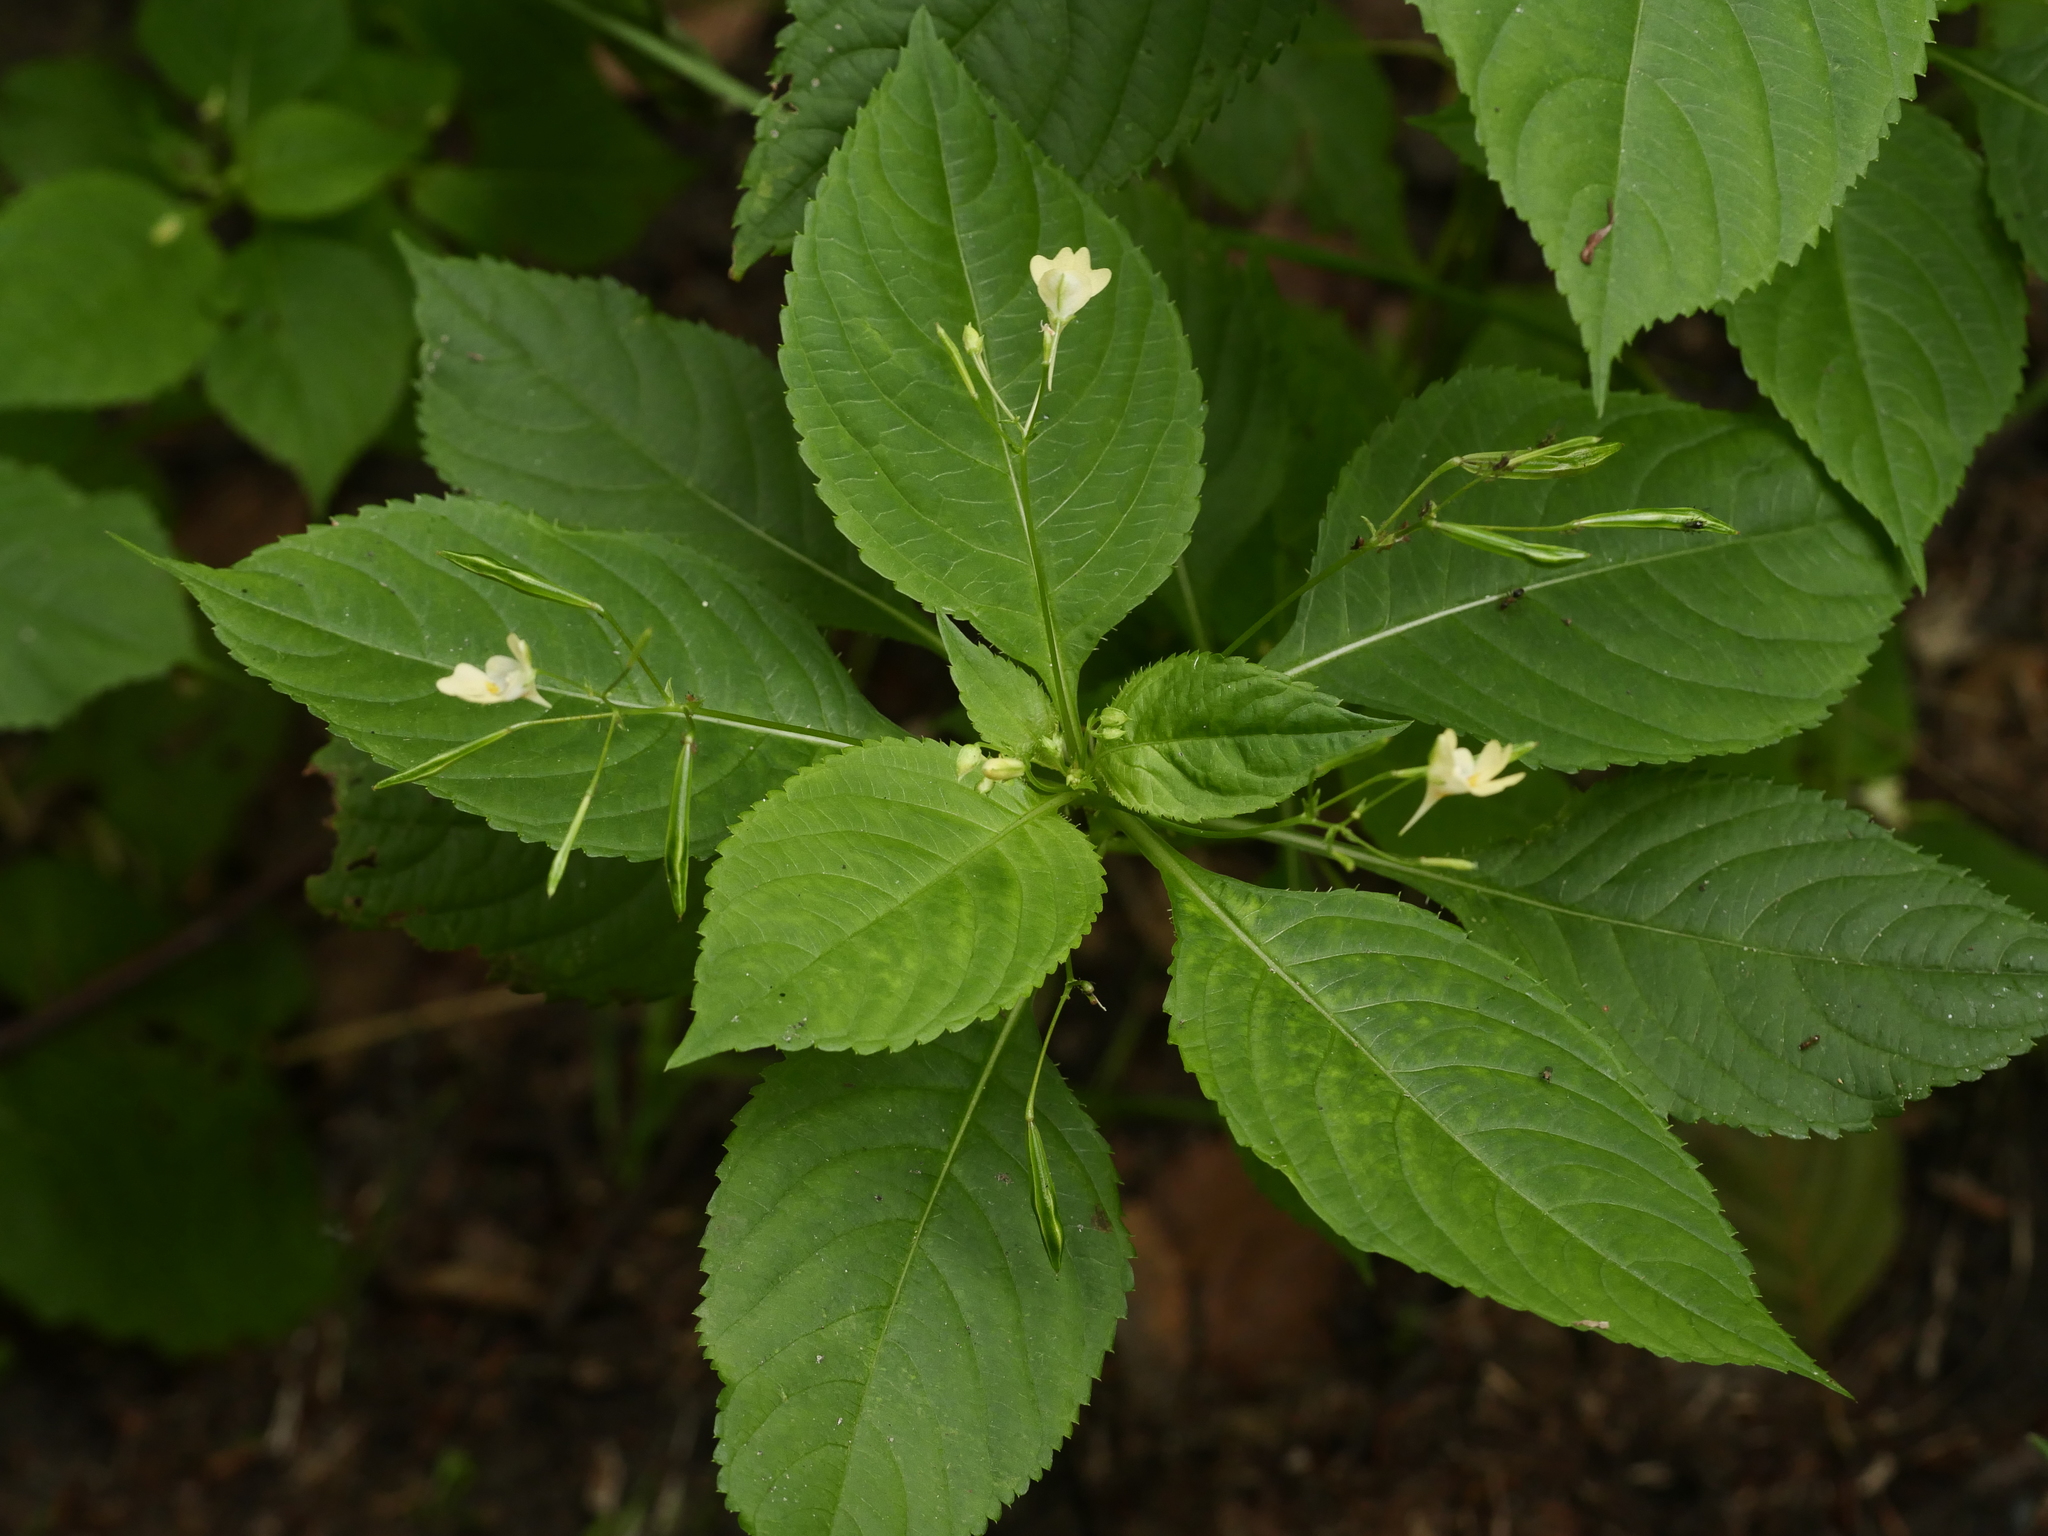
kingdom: Plantae
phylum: Tracheophyta
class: Magnoliopsida
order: Ericales
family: Balsaminaceae
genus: Impatiens
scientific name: Impatiens parviflora
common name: Small balsam
